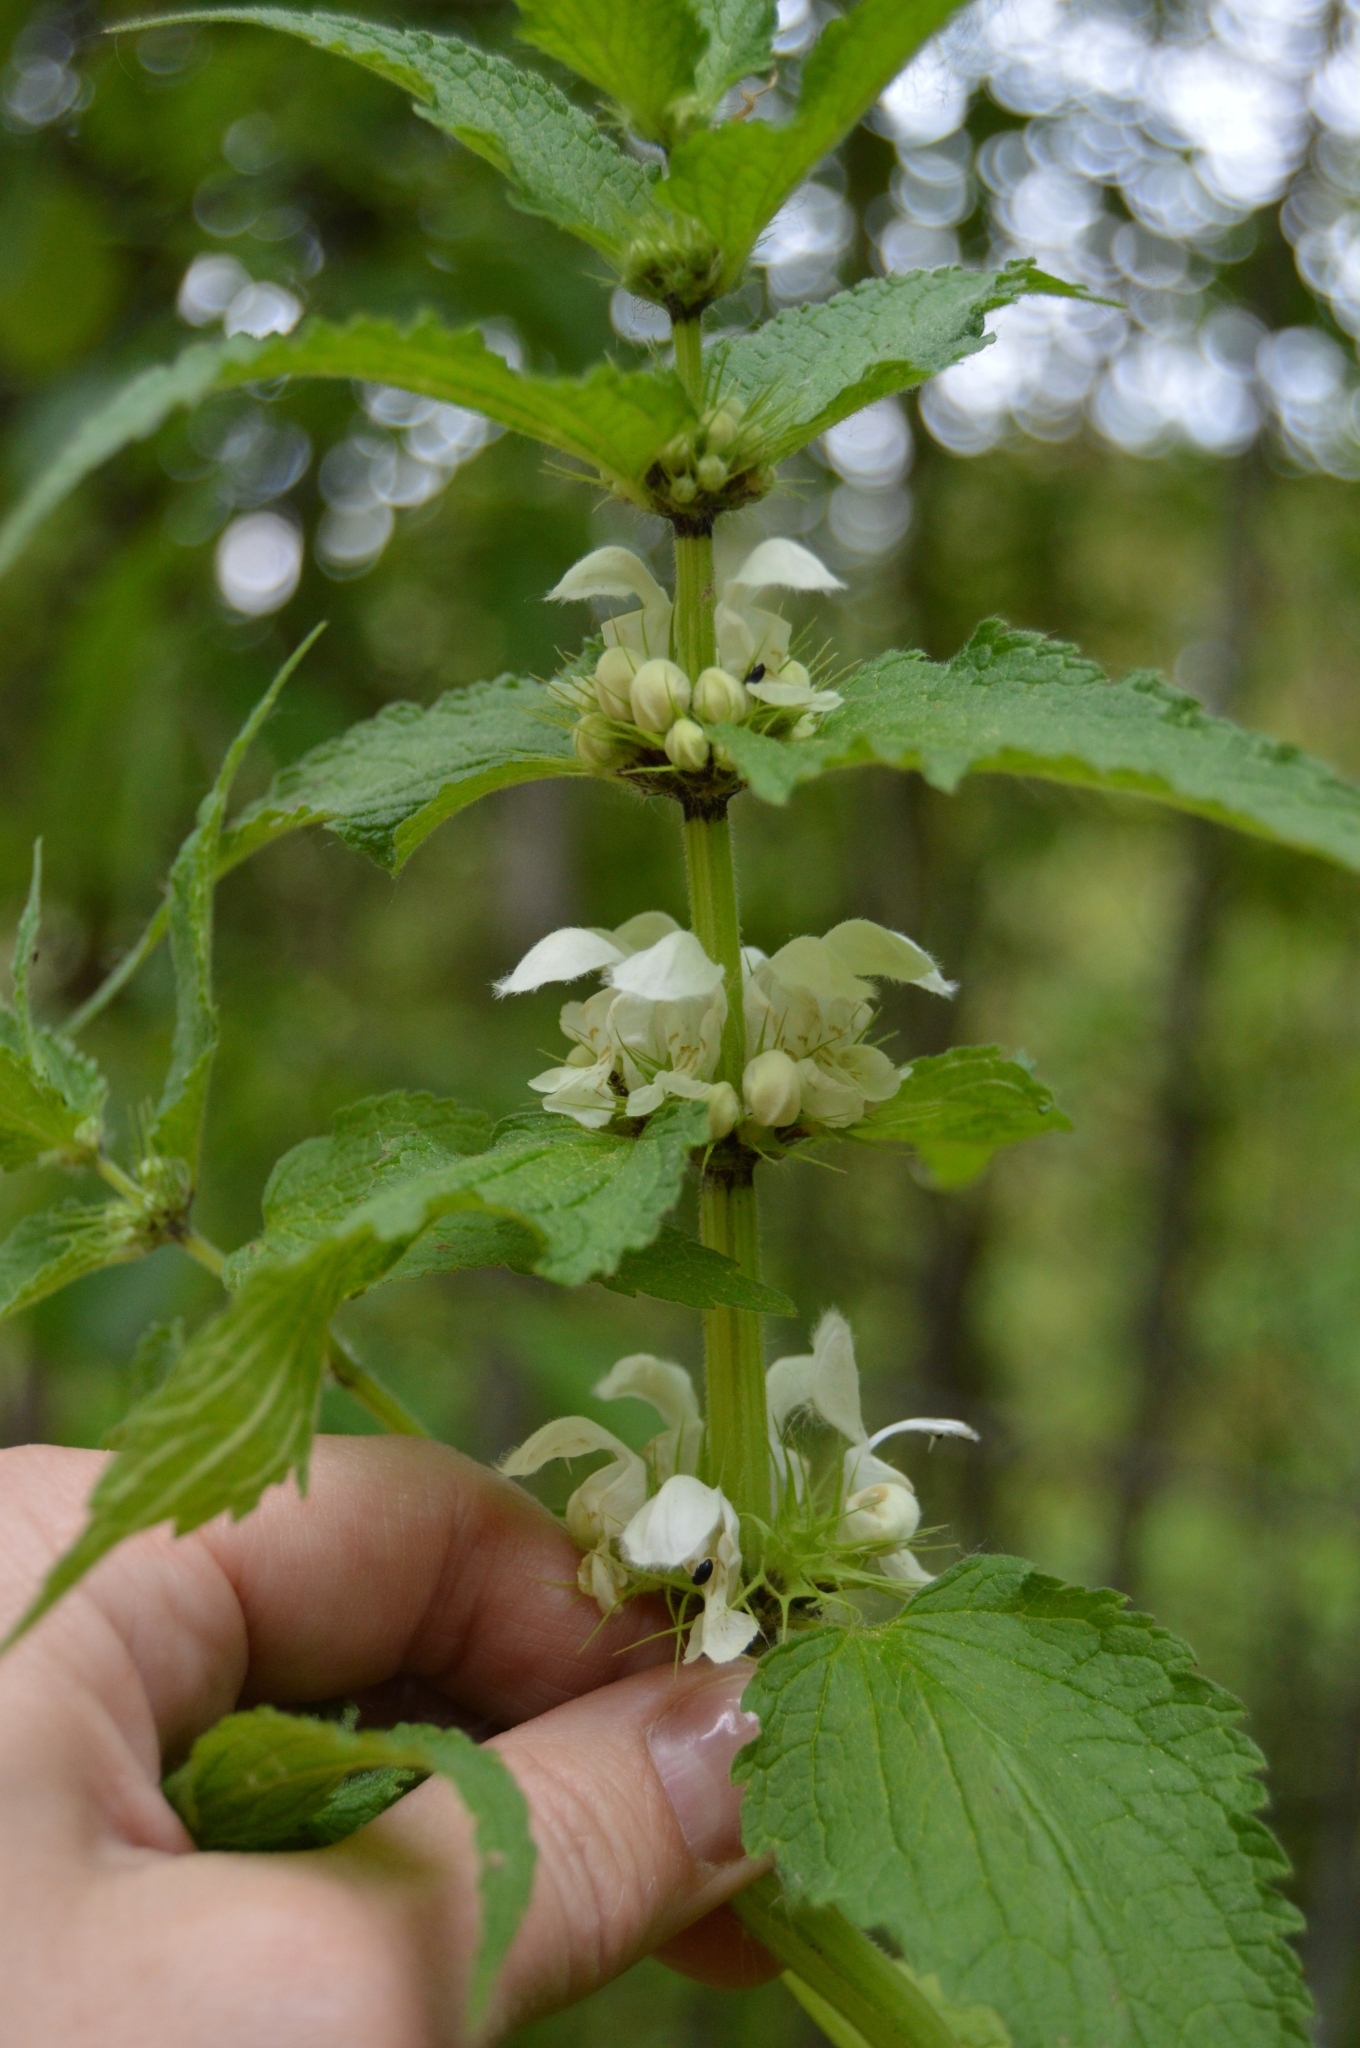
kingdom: Plantae
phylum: Tracheophyta
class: Magnoliopsida
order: Lamiales
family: Lamiaceae
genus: Lamium
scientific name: Lamium album
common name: White dead-nettle
